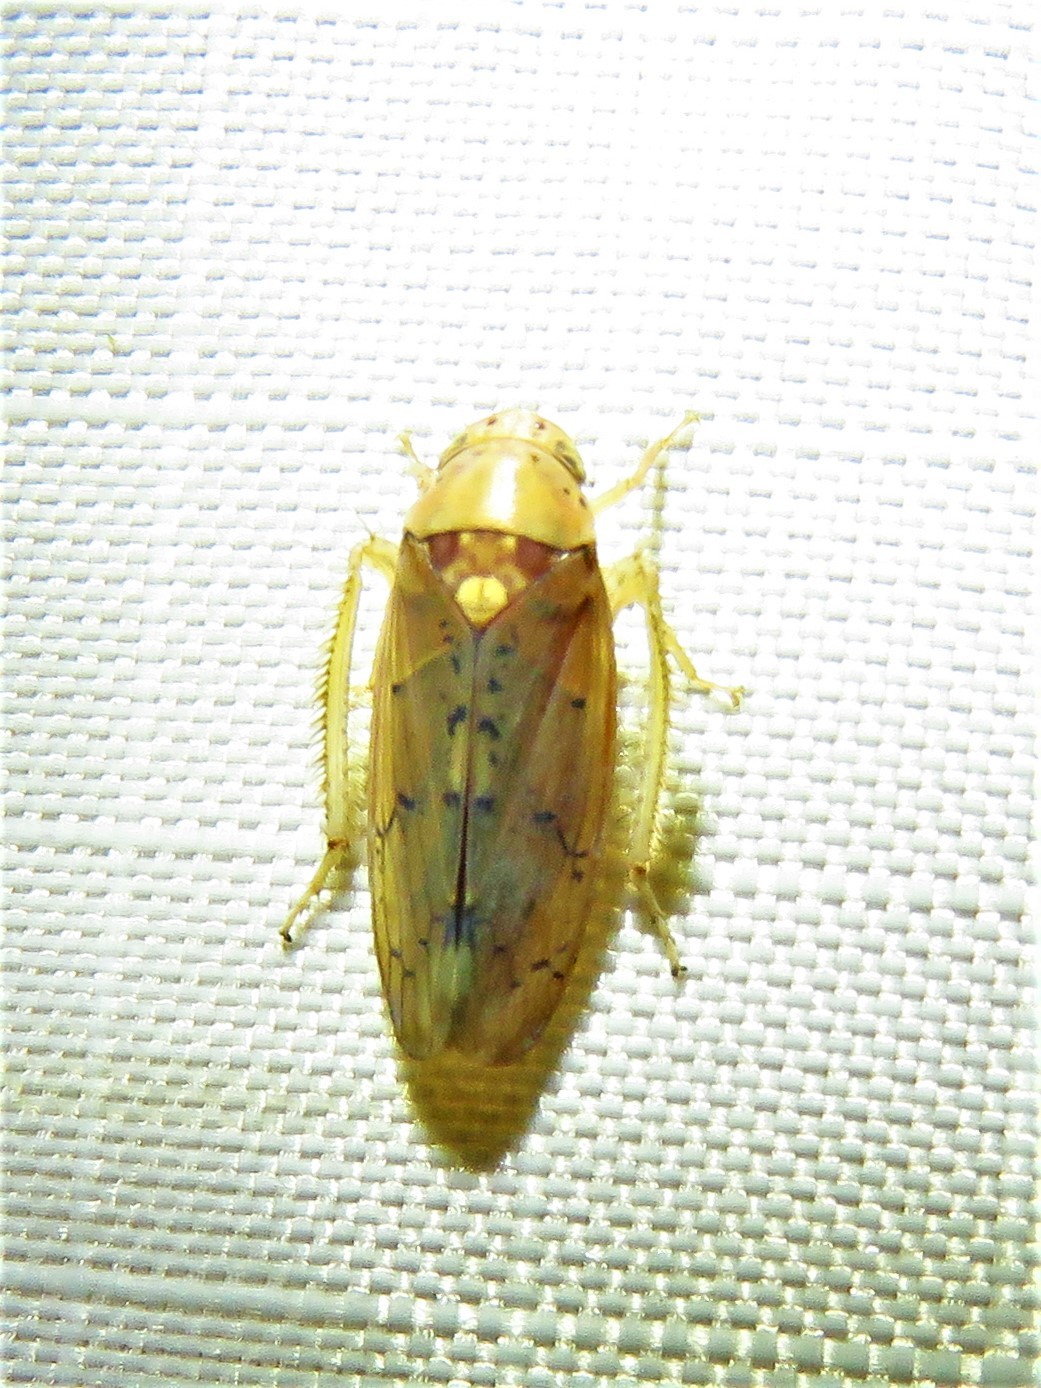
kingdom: Animalia
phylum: Arthropoda
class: Insecta
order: Hemiptera
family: Cicadellidae
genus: Ponana
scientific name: Ponana quadralaba
